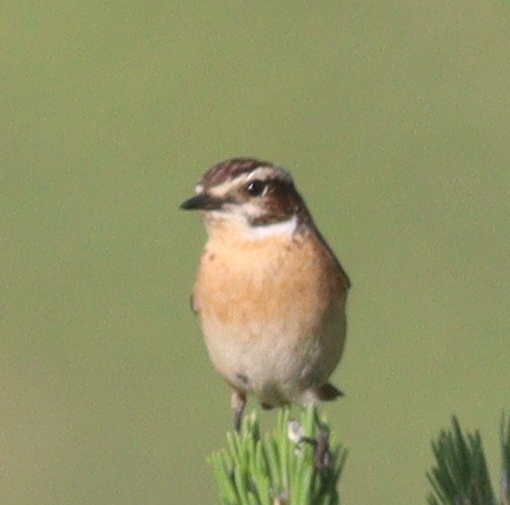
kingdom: Animalia
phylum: Chordata
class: Aves
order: Passeriformes
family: Muscicapidae
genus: Saxicola
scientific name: Saxicola rubetra
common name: Whinchat
